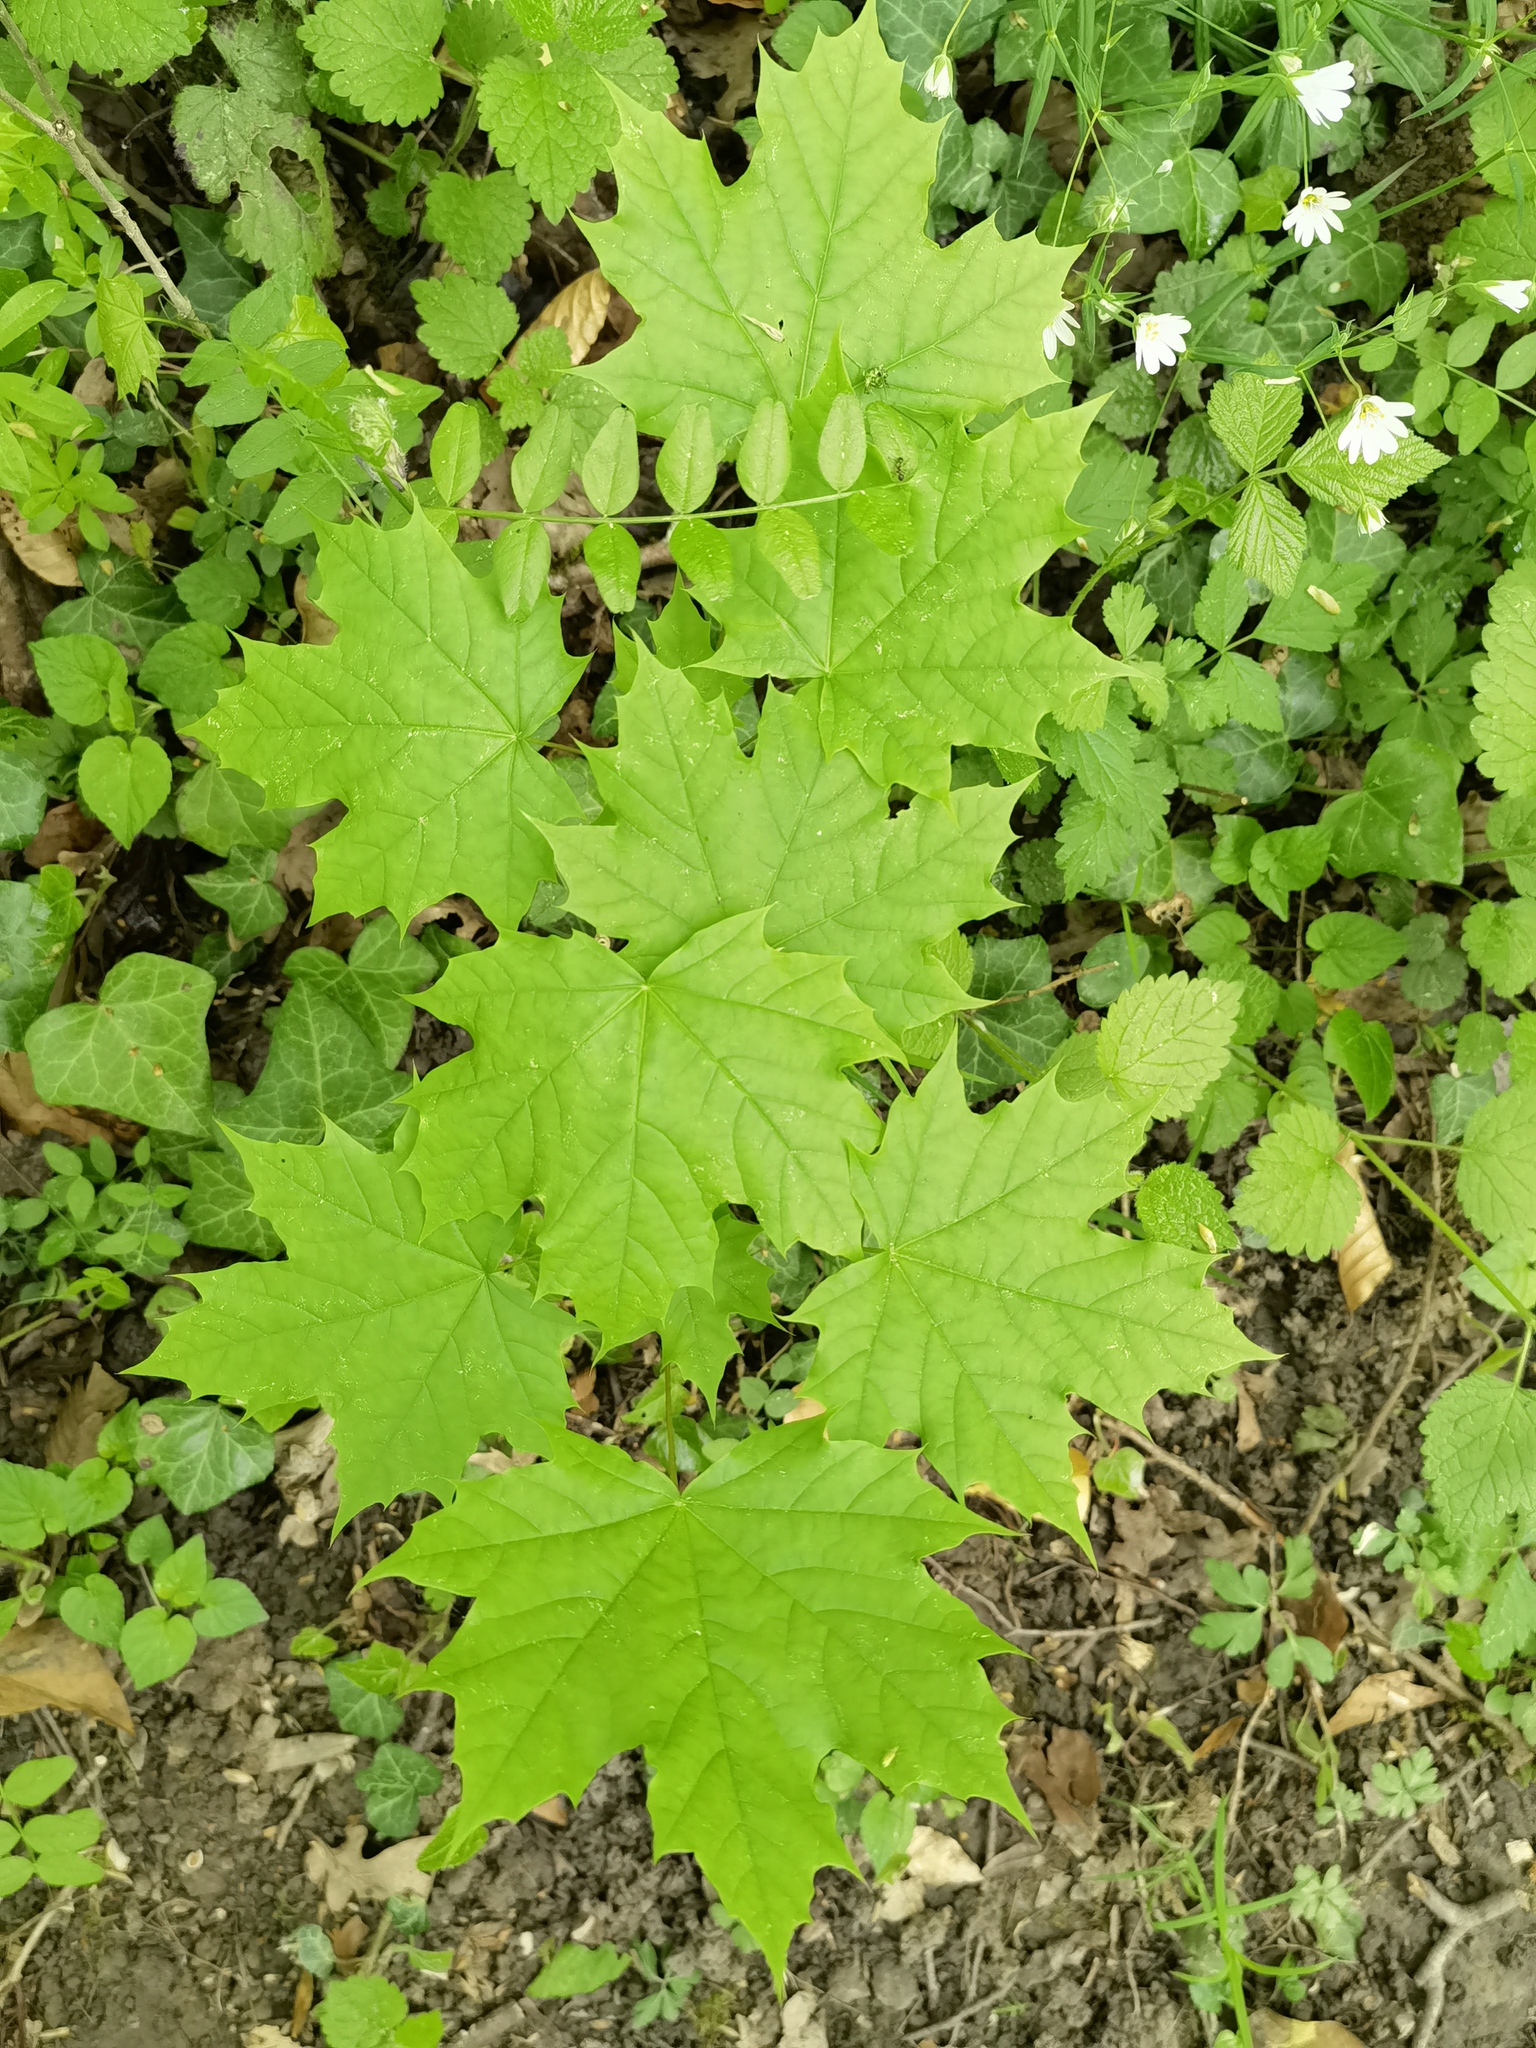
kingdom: Plantae
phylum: Tracheophyta
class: Magnoliopsida
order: Sapindales
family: Sapindaceae
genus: Acer
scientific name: Acer platanoides
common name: Norway maple
